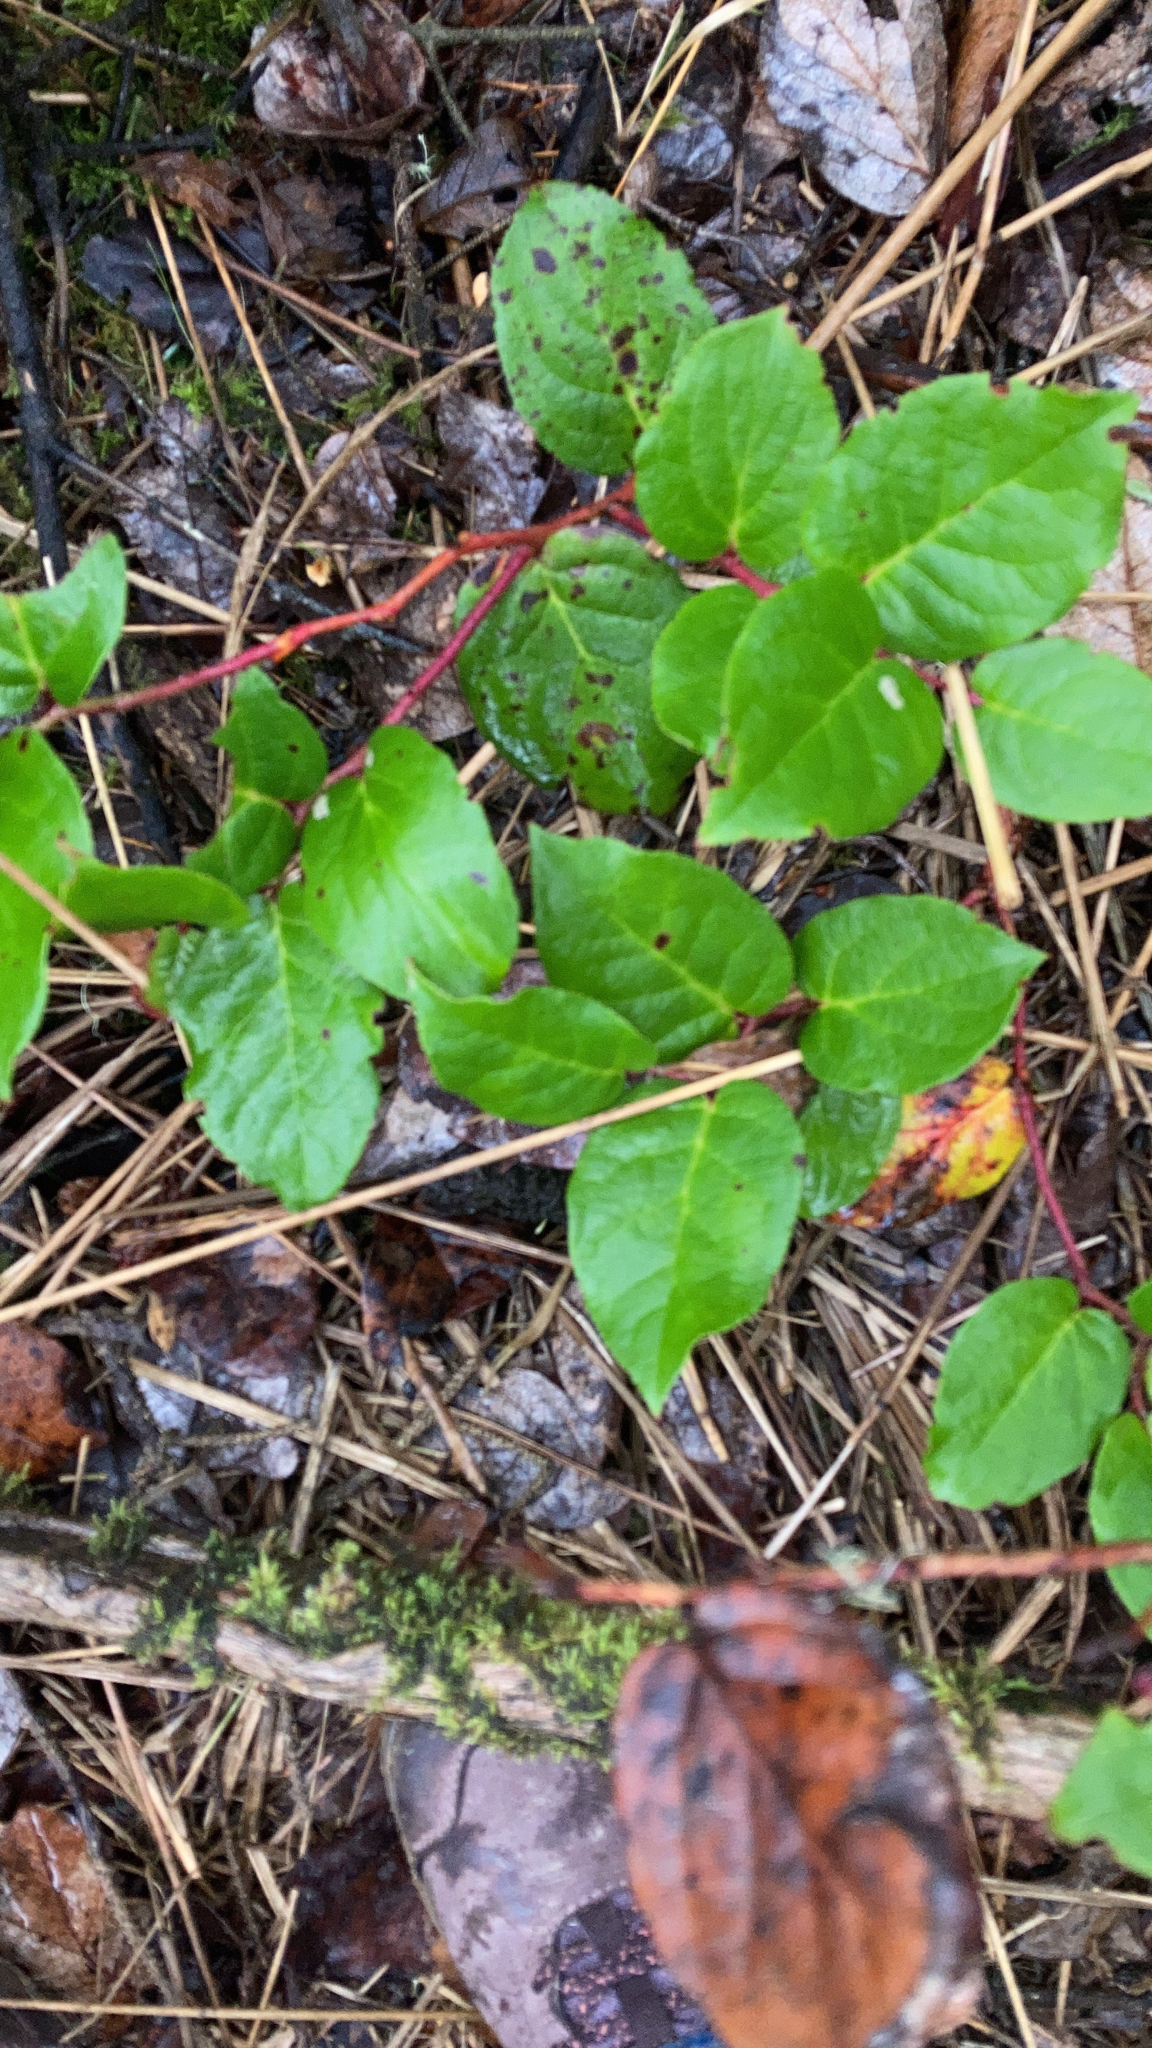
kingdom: Plantae
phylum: Tracheophyta
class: Magnoliopsida
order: Ericales
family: Ericaceae
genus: Gaultheria
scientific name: Gaultheria shallon
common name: Shallon
